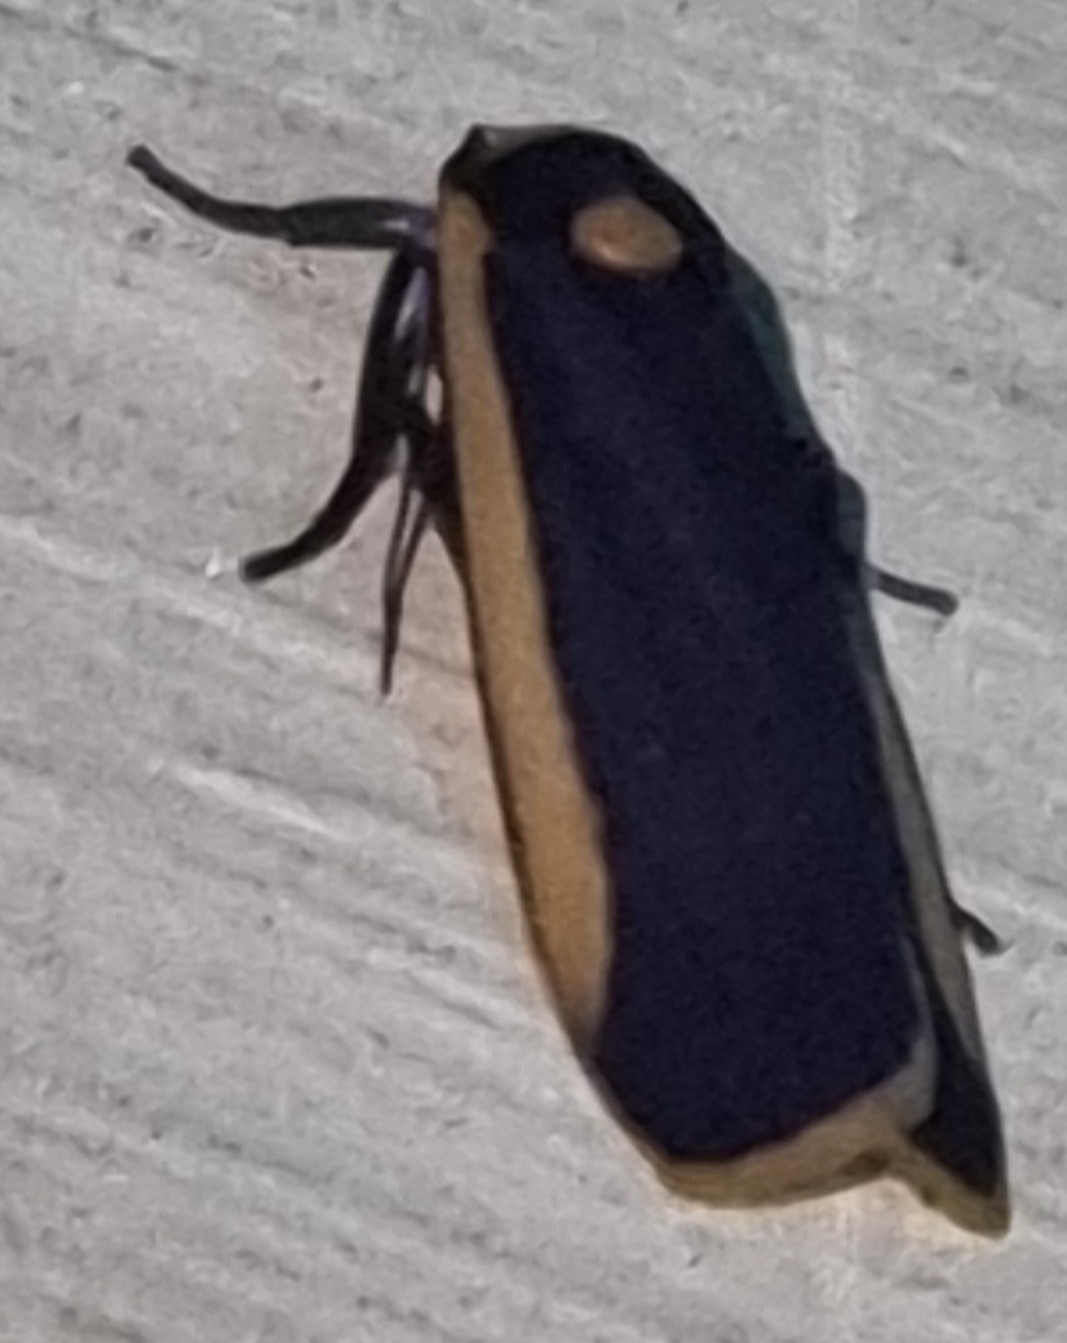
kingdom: Animalia
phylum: Arthropoda
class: Insecta
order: Lepidoptera
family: Erebidae
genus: Brunia
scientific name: Brunia replana
